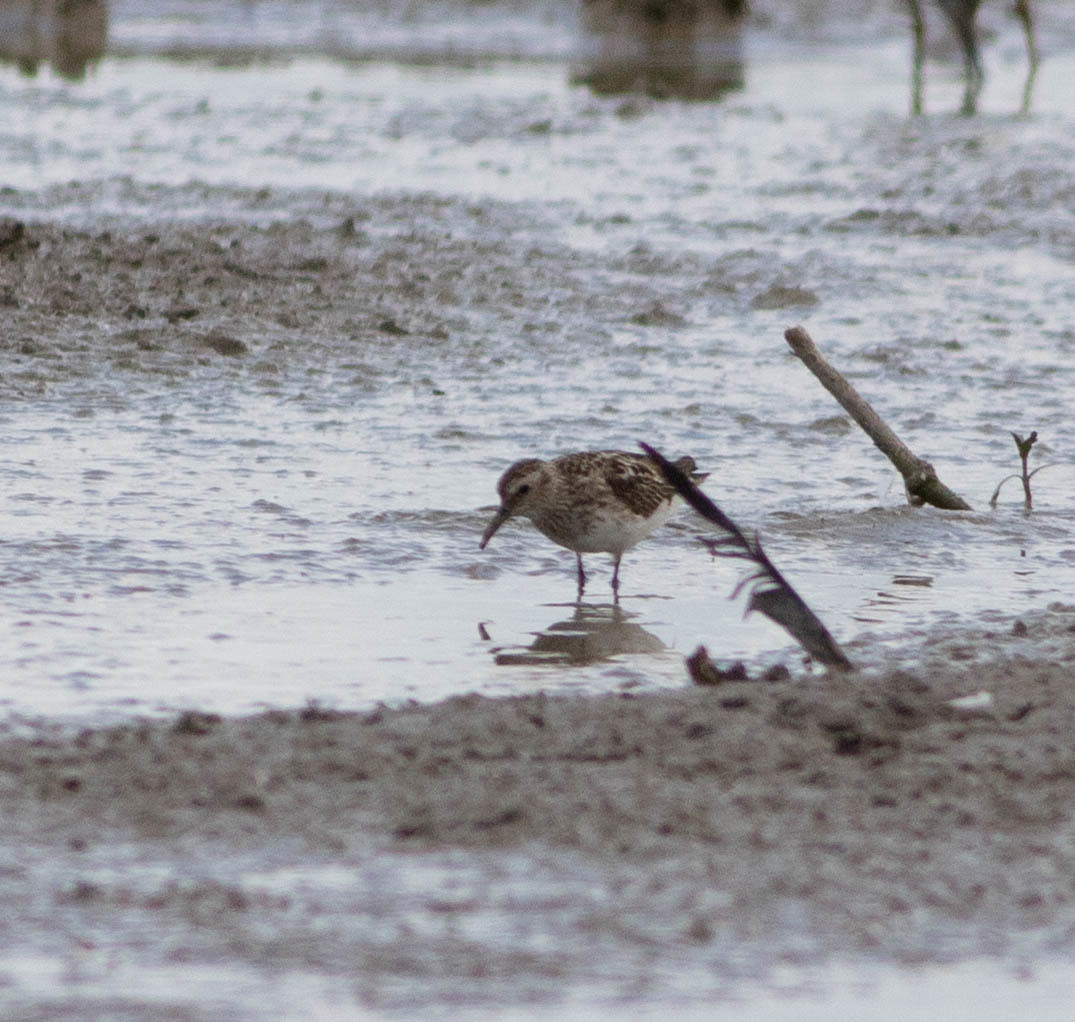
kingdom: Animalia
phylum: Chordata
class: Aves
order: Charadriiformes
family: Scolopacidae
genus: Calidris
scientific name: Calidris minutilla
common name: Least sandpiper
